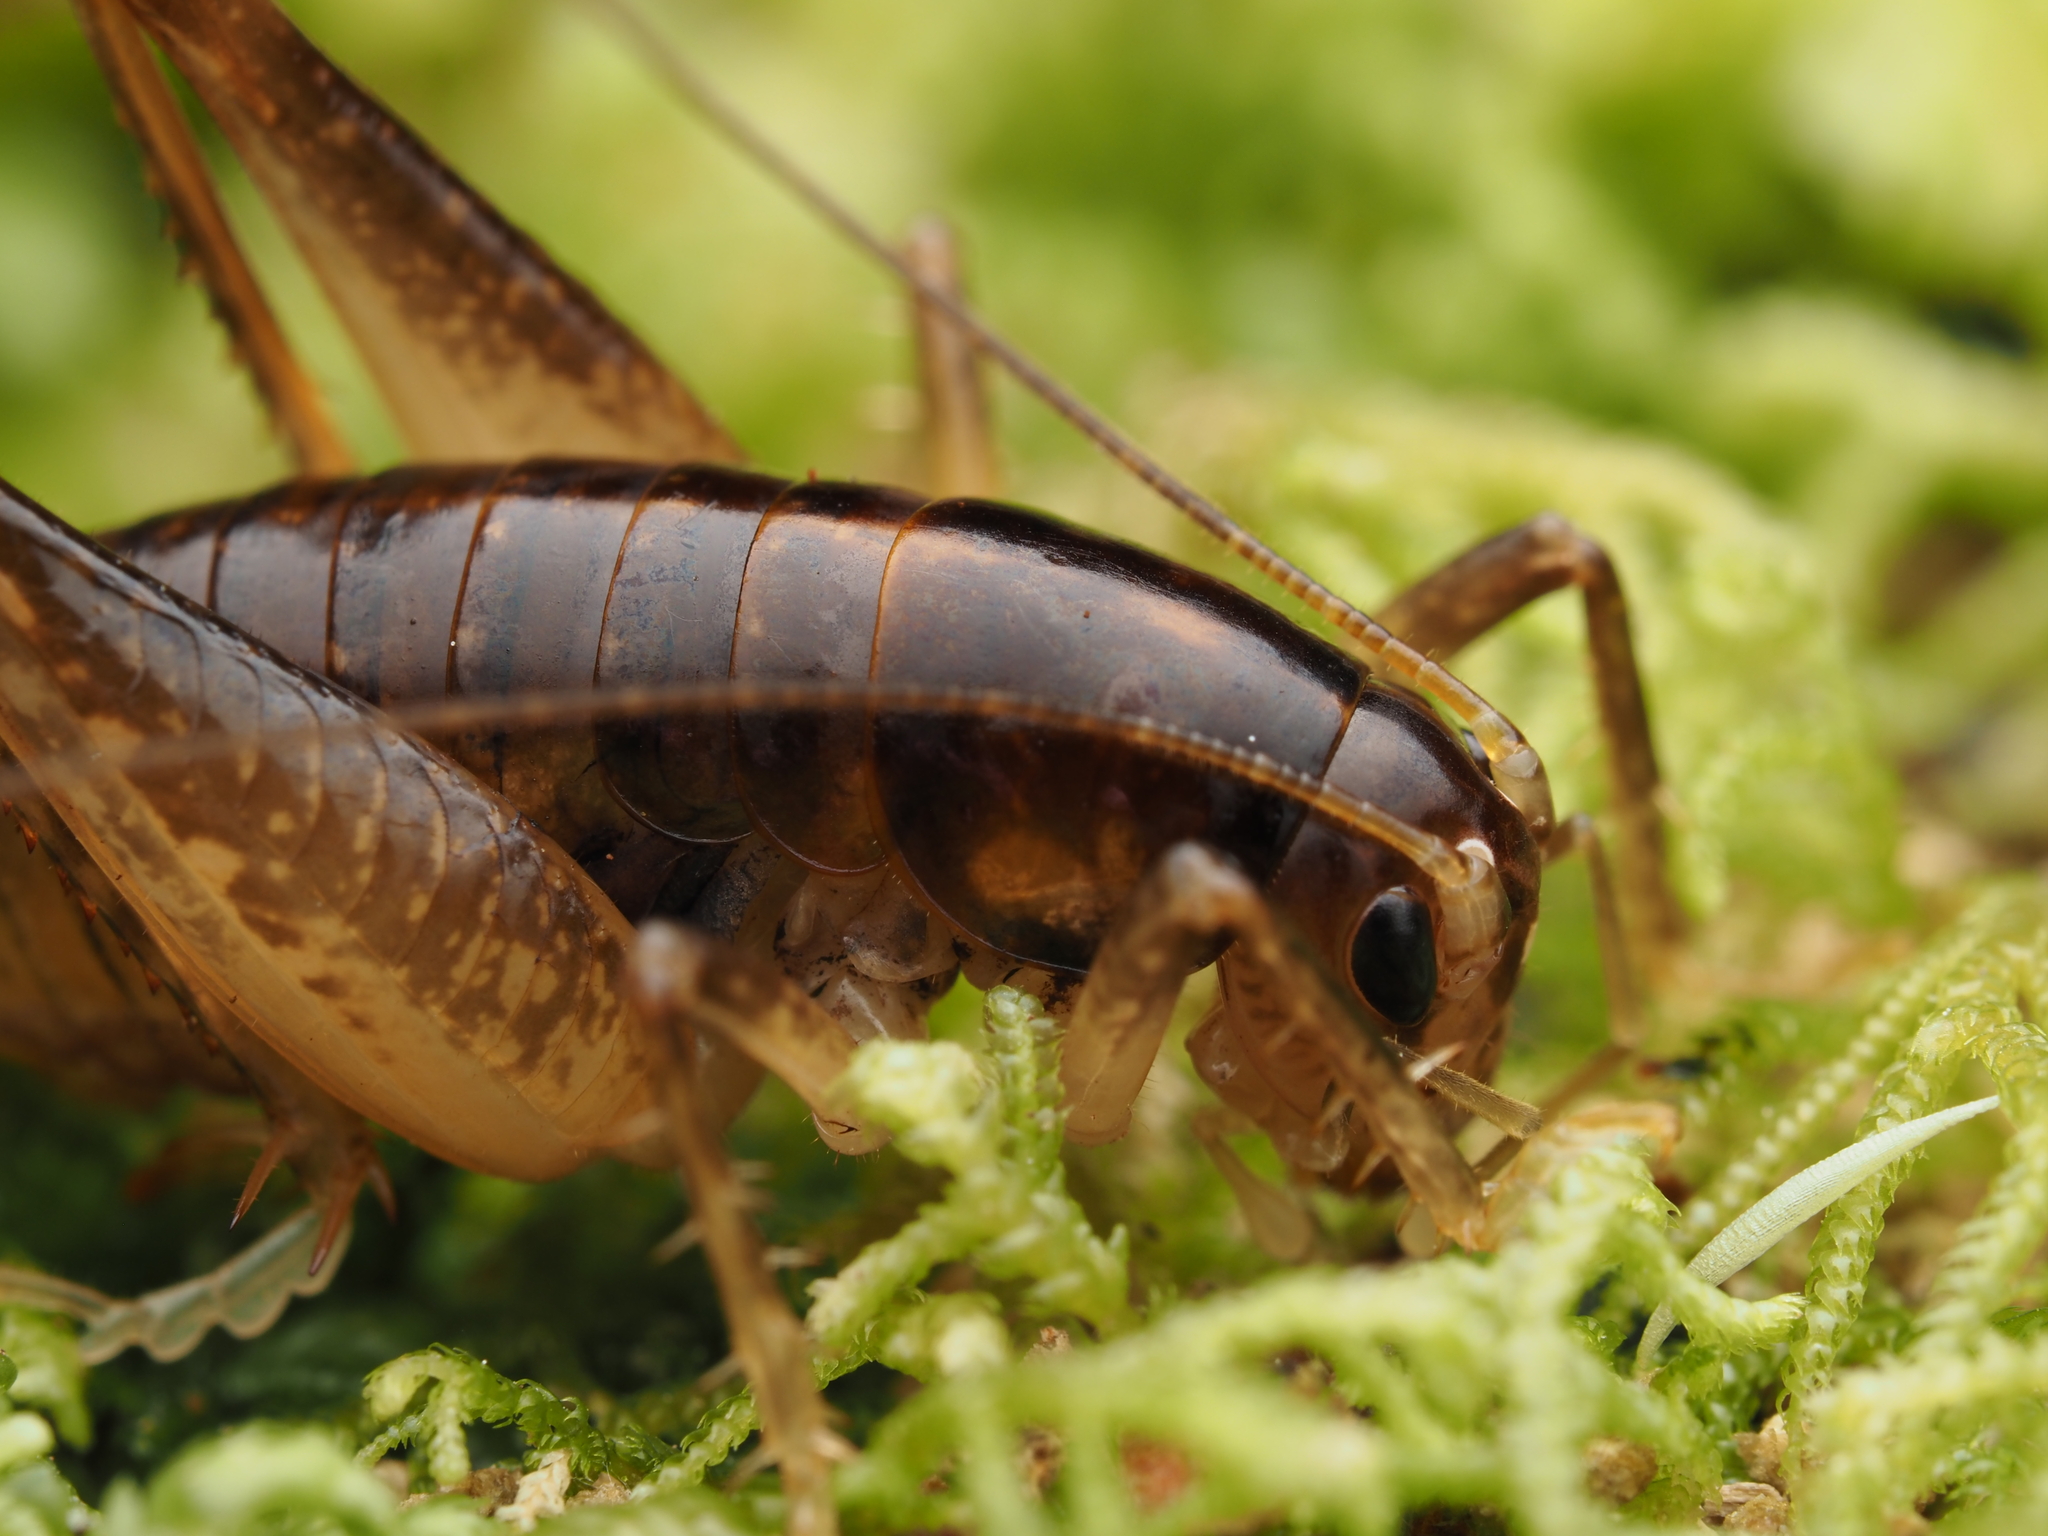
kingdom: Animalia
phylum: Arthropoda
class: Insecta
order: Orthoptera
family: Anostostomatidae
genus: Hemiandrus
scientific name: Hemiandrus brucei
